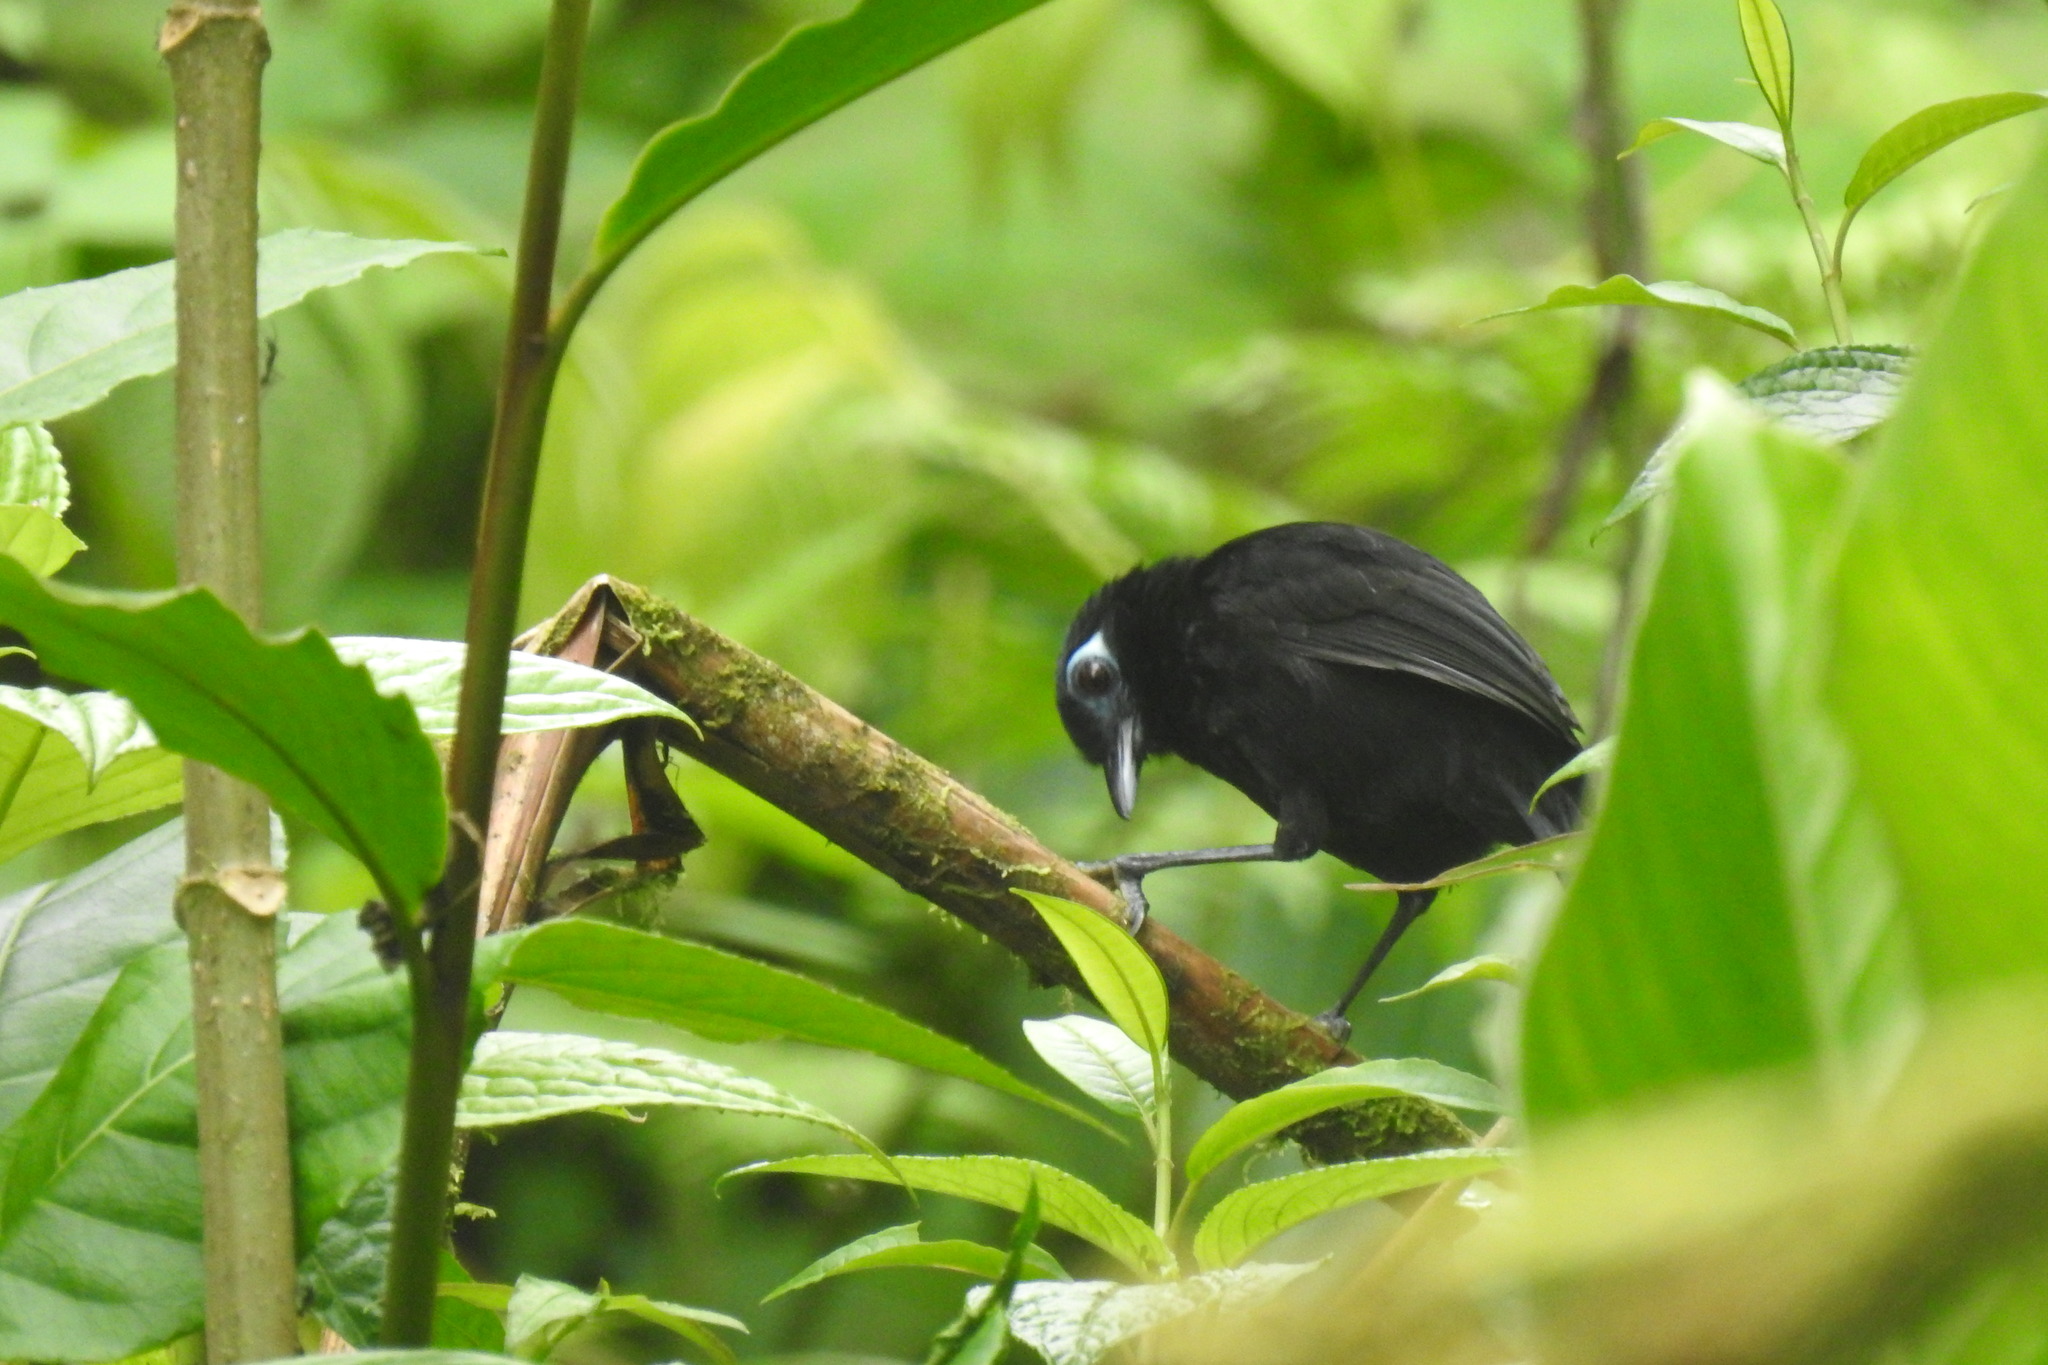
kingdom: Animalia
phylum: Chordata
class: Aves
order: Passeriformes
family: Thamnophilidae
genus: Hafferia
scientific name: Hafferia zeledoni
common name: Zeledon's antbird
